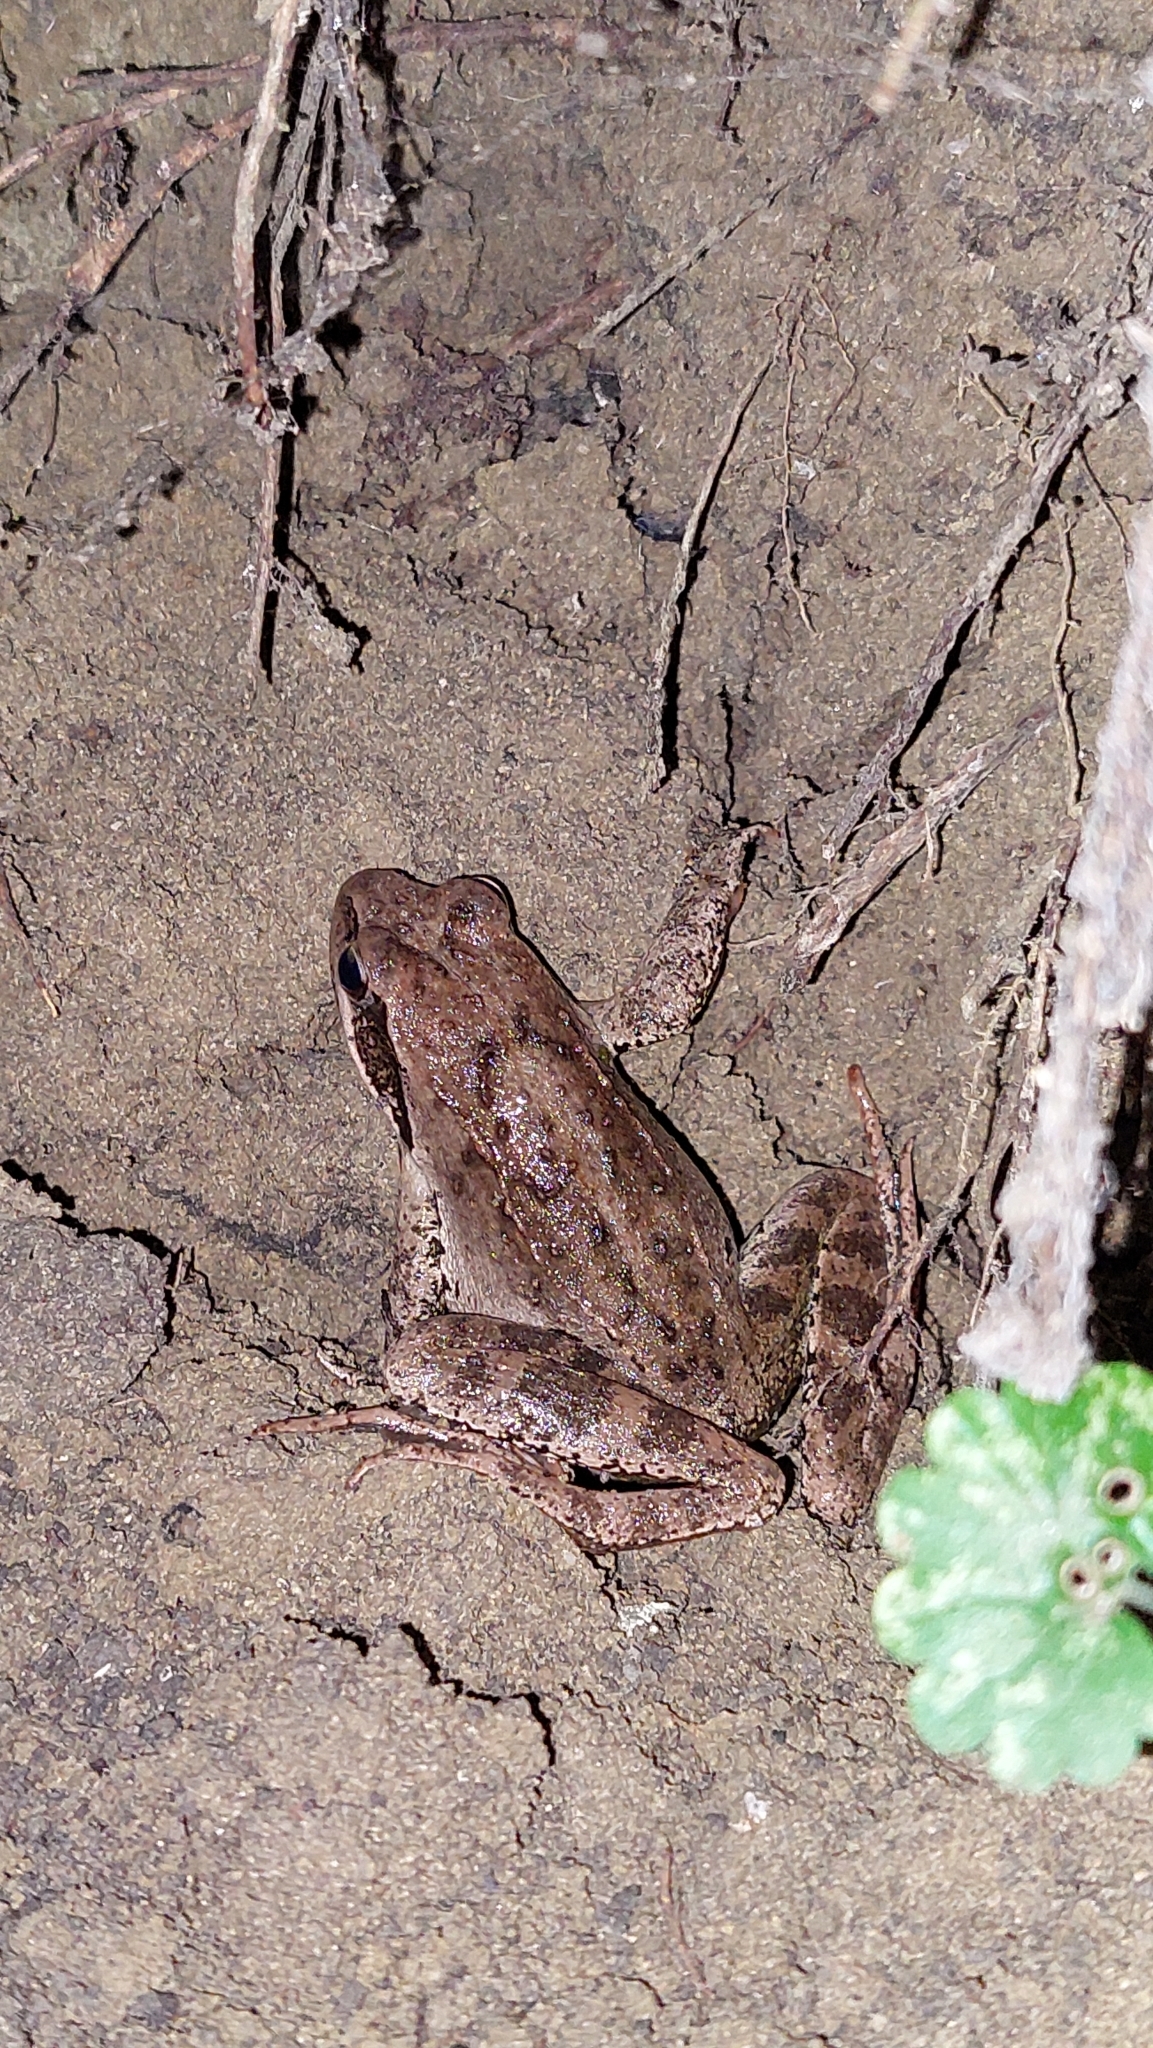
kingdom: Animalia
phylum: Chordata
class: Amphibia
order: Anura
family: Ranidae
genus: Rana
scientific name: Rana macrocnemis
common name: Banded frog
